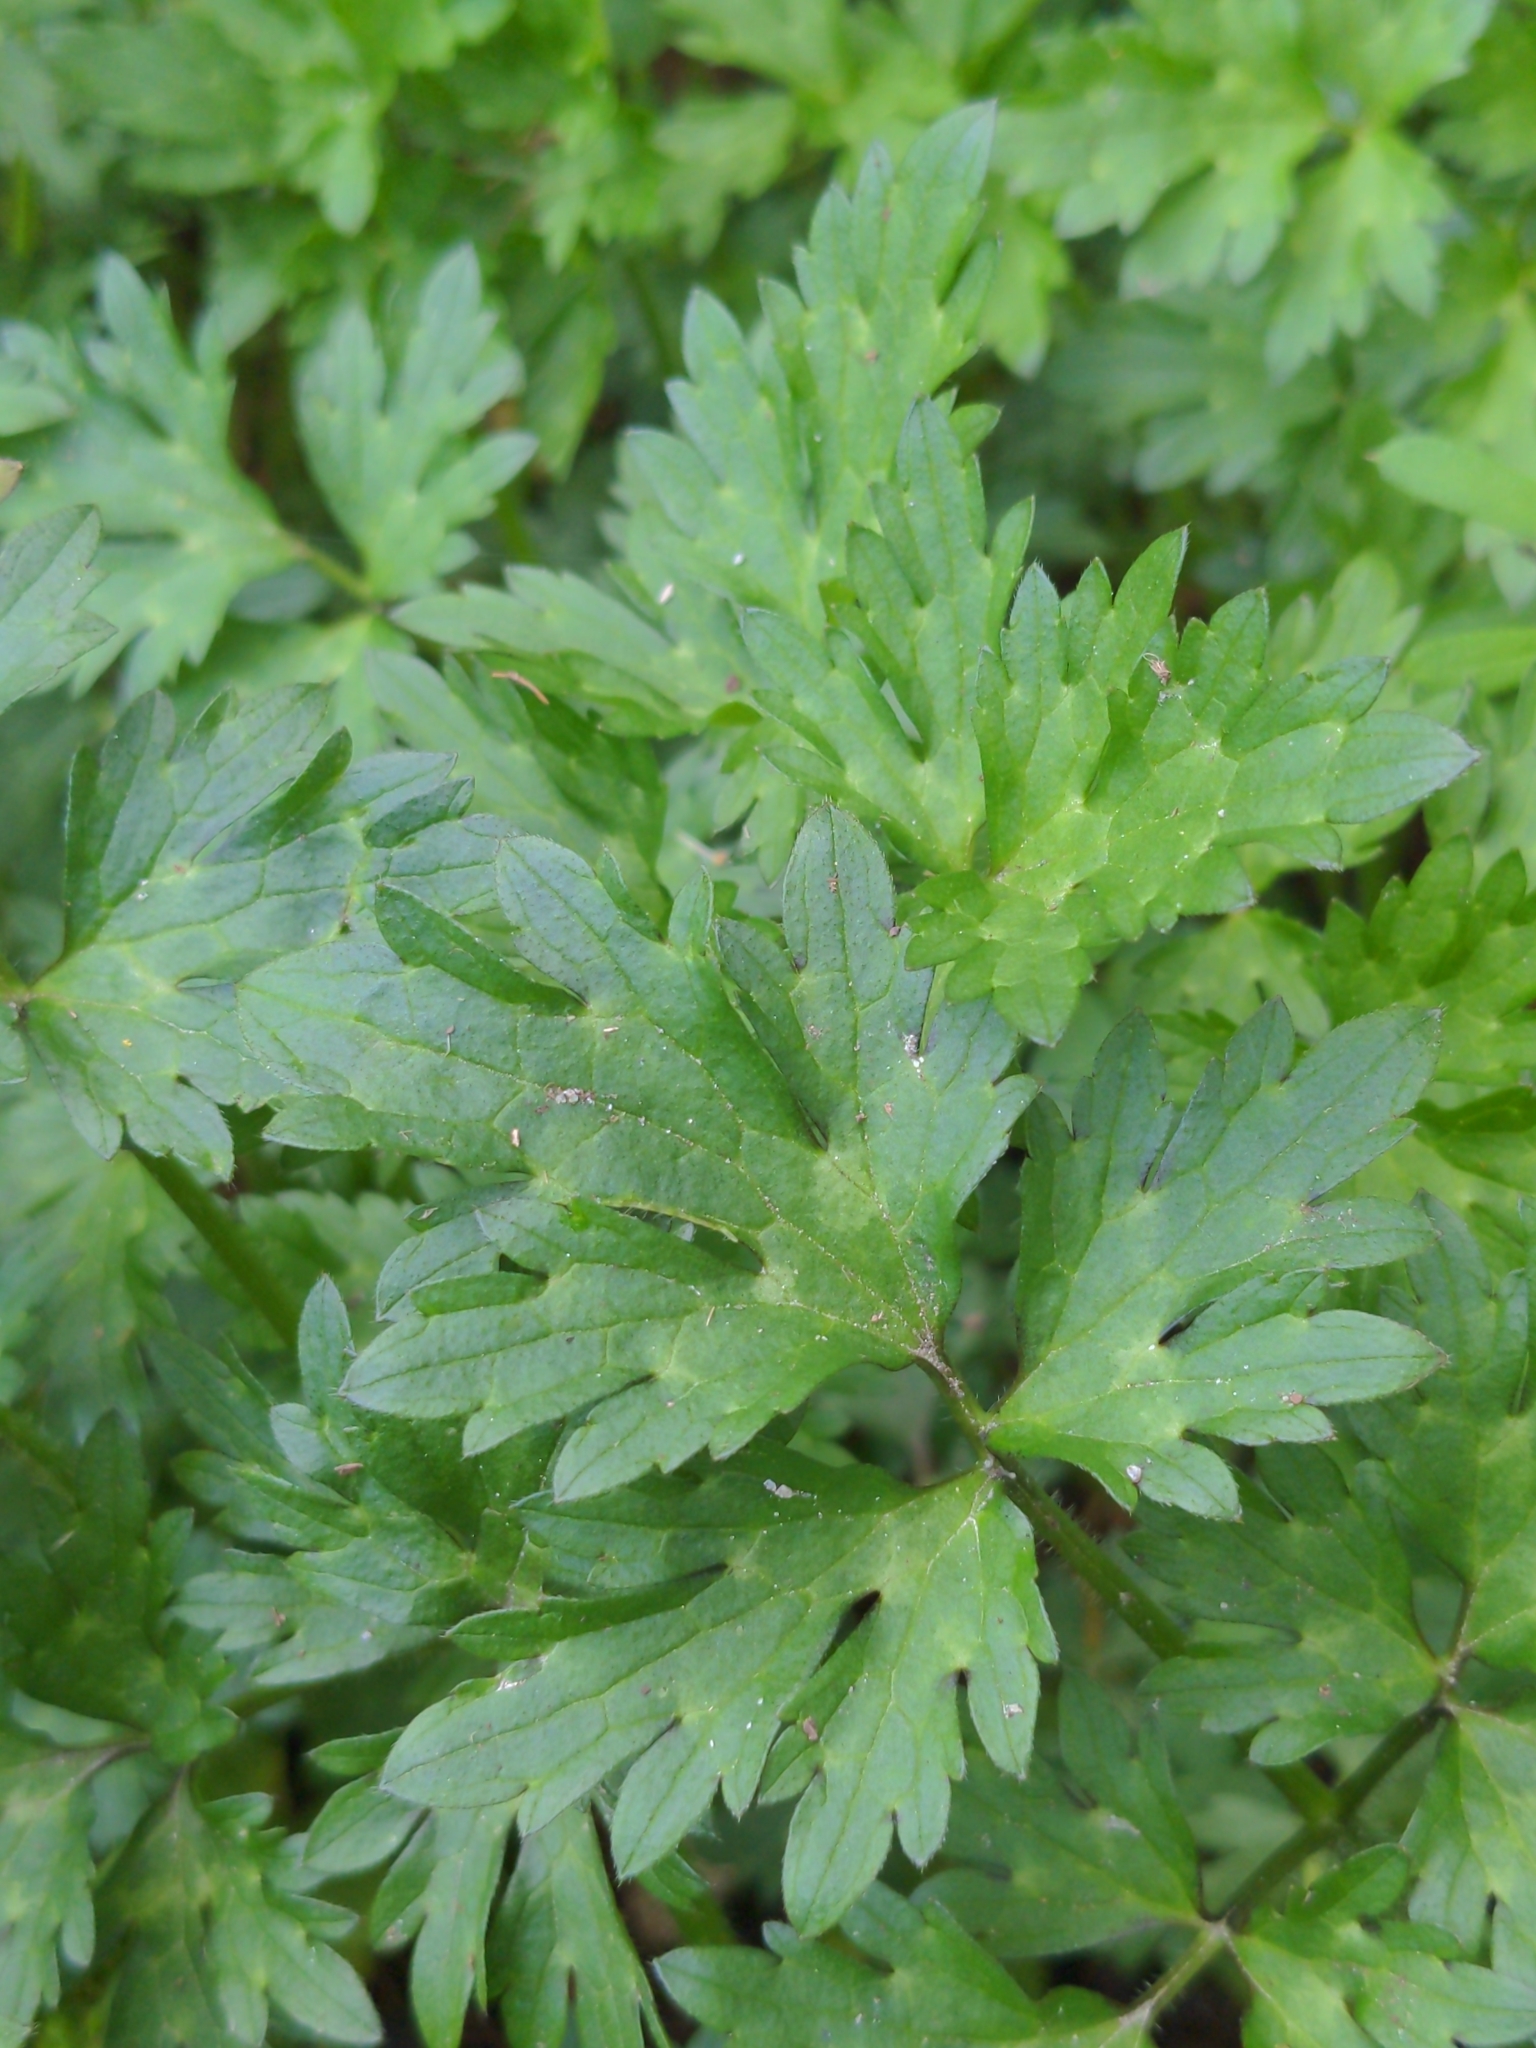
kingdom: Plantae
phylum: Tracheophyta
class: Magnoliopsida
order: Ranunculales
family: Ranunculaceae
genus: Ranunculus
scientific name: Ranunculus repens
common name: Creeping buttercup
